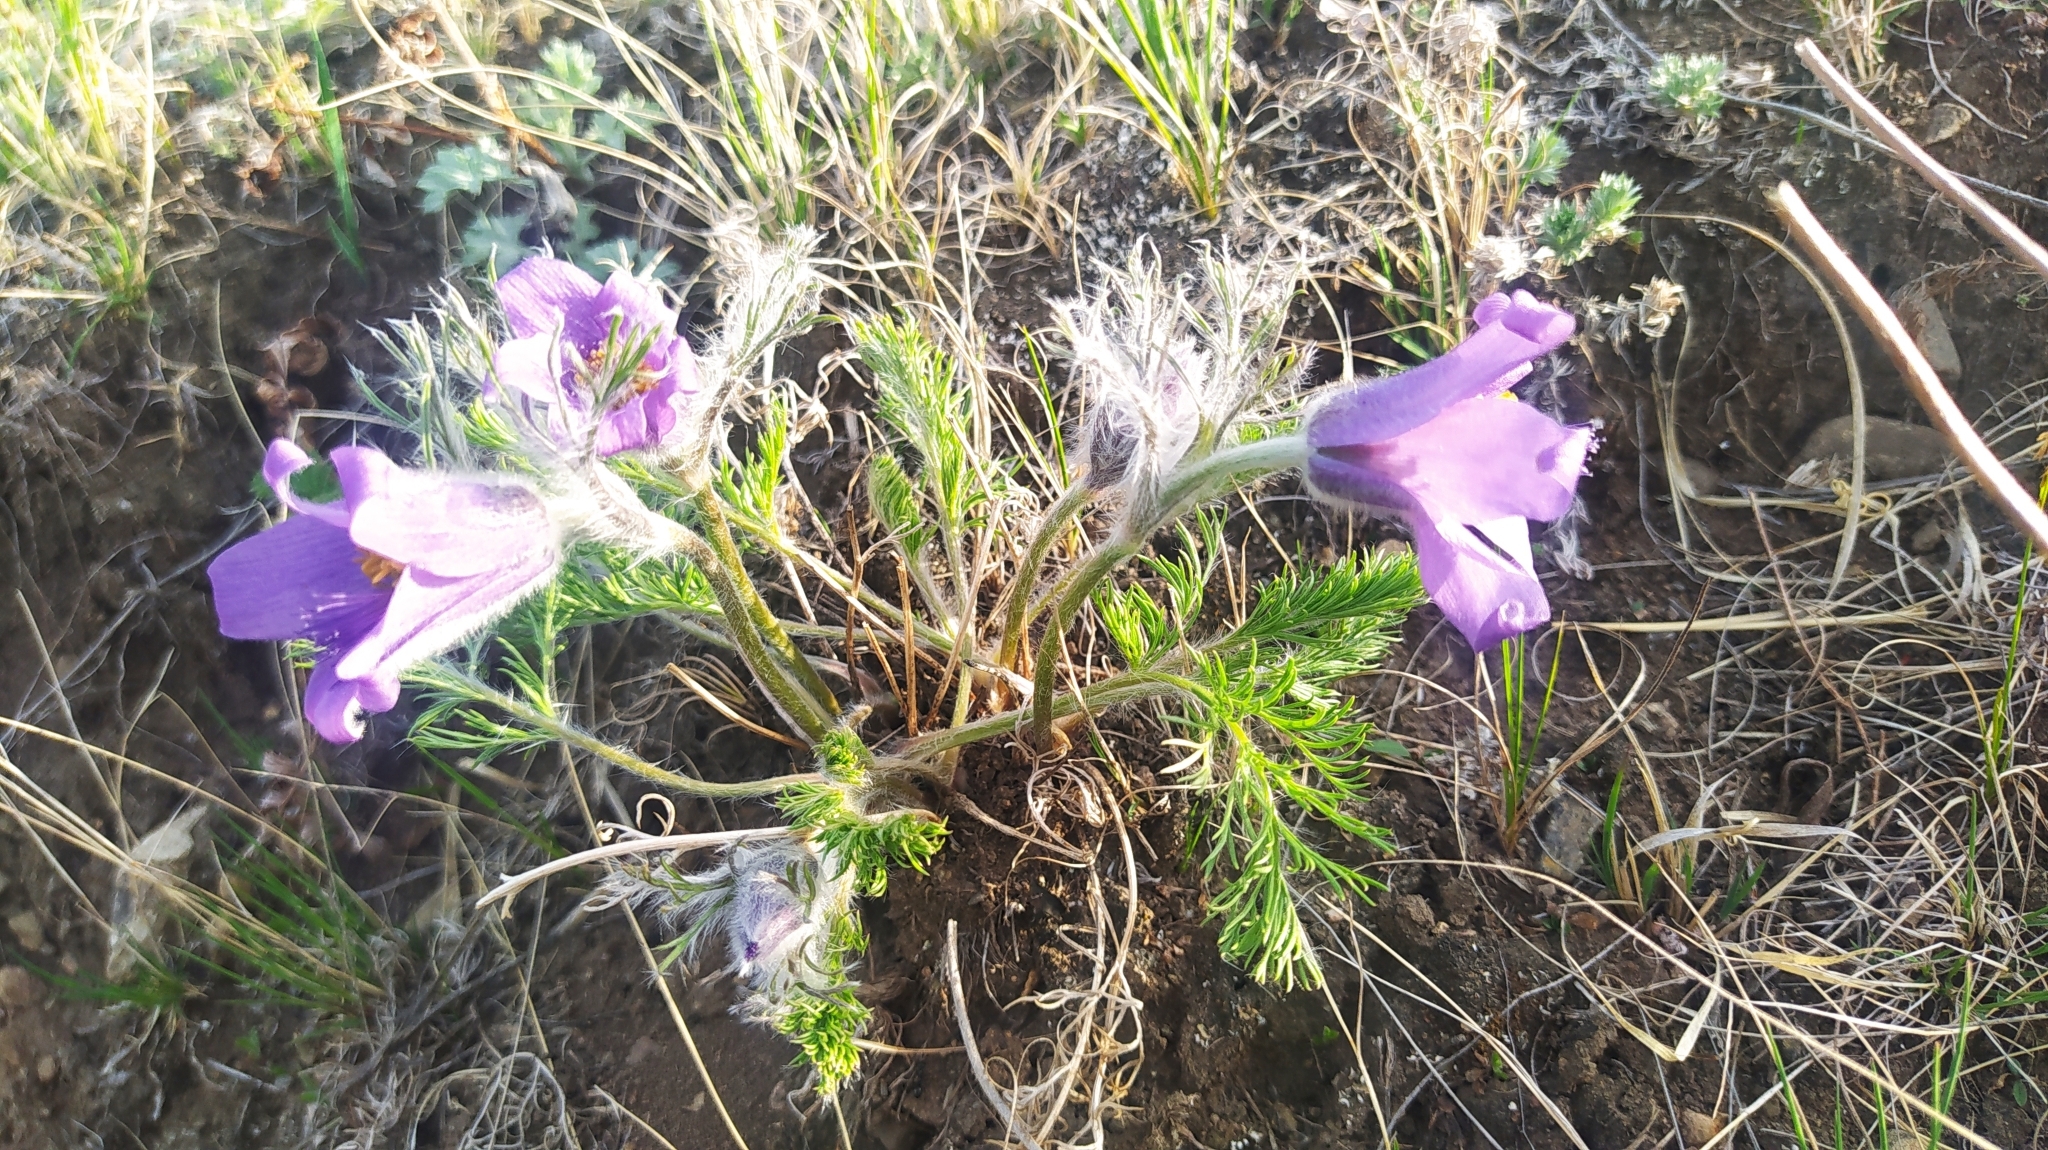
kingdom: Plantae
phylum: Tracheophyta
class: Magnoliopsida
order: Ranunculales
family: Ranunculaceae
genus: Pulsatilla
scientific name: Pulsatilla turczaninovii
